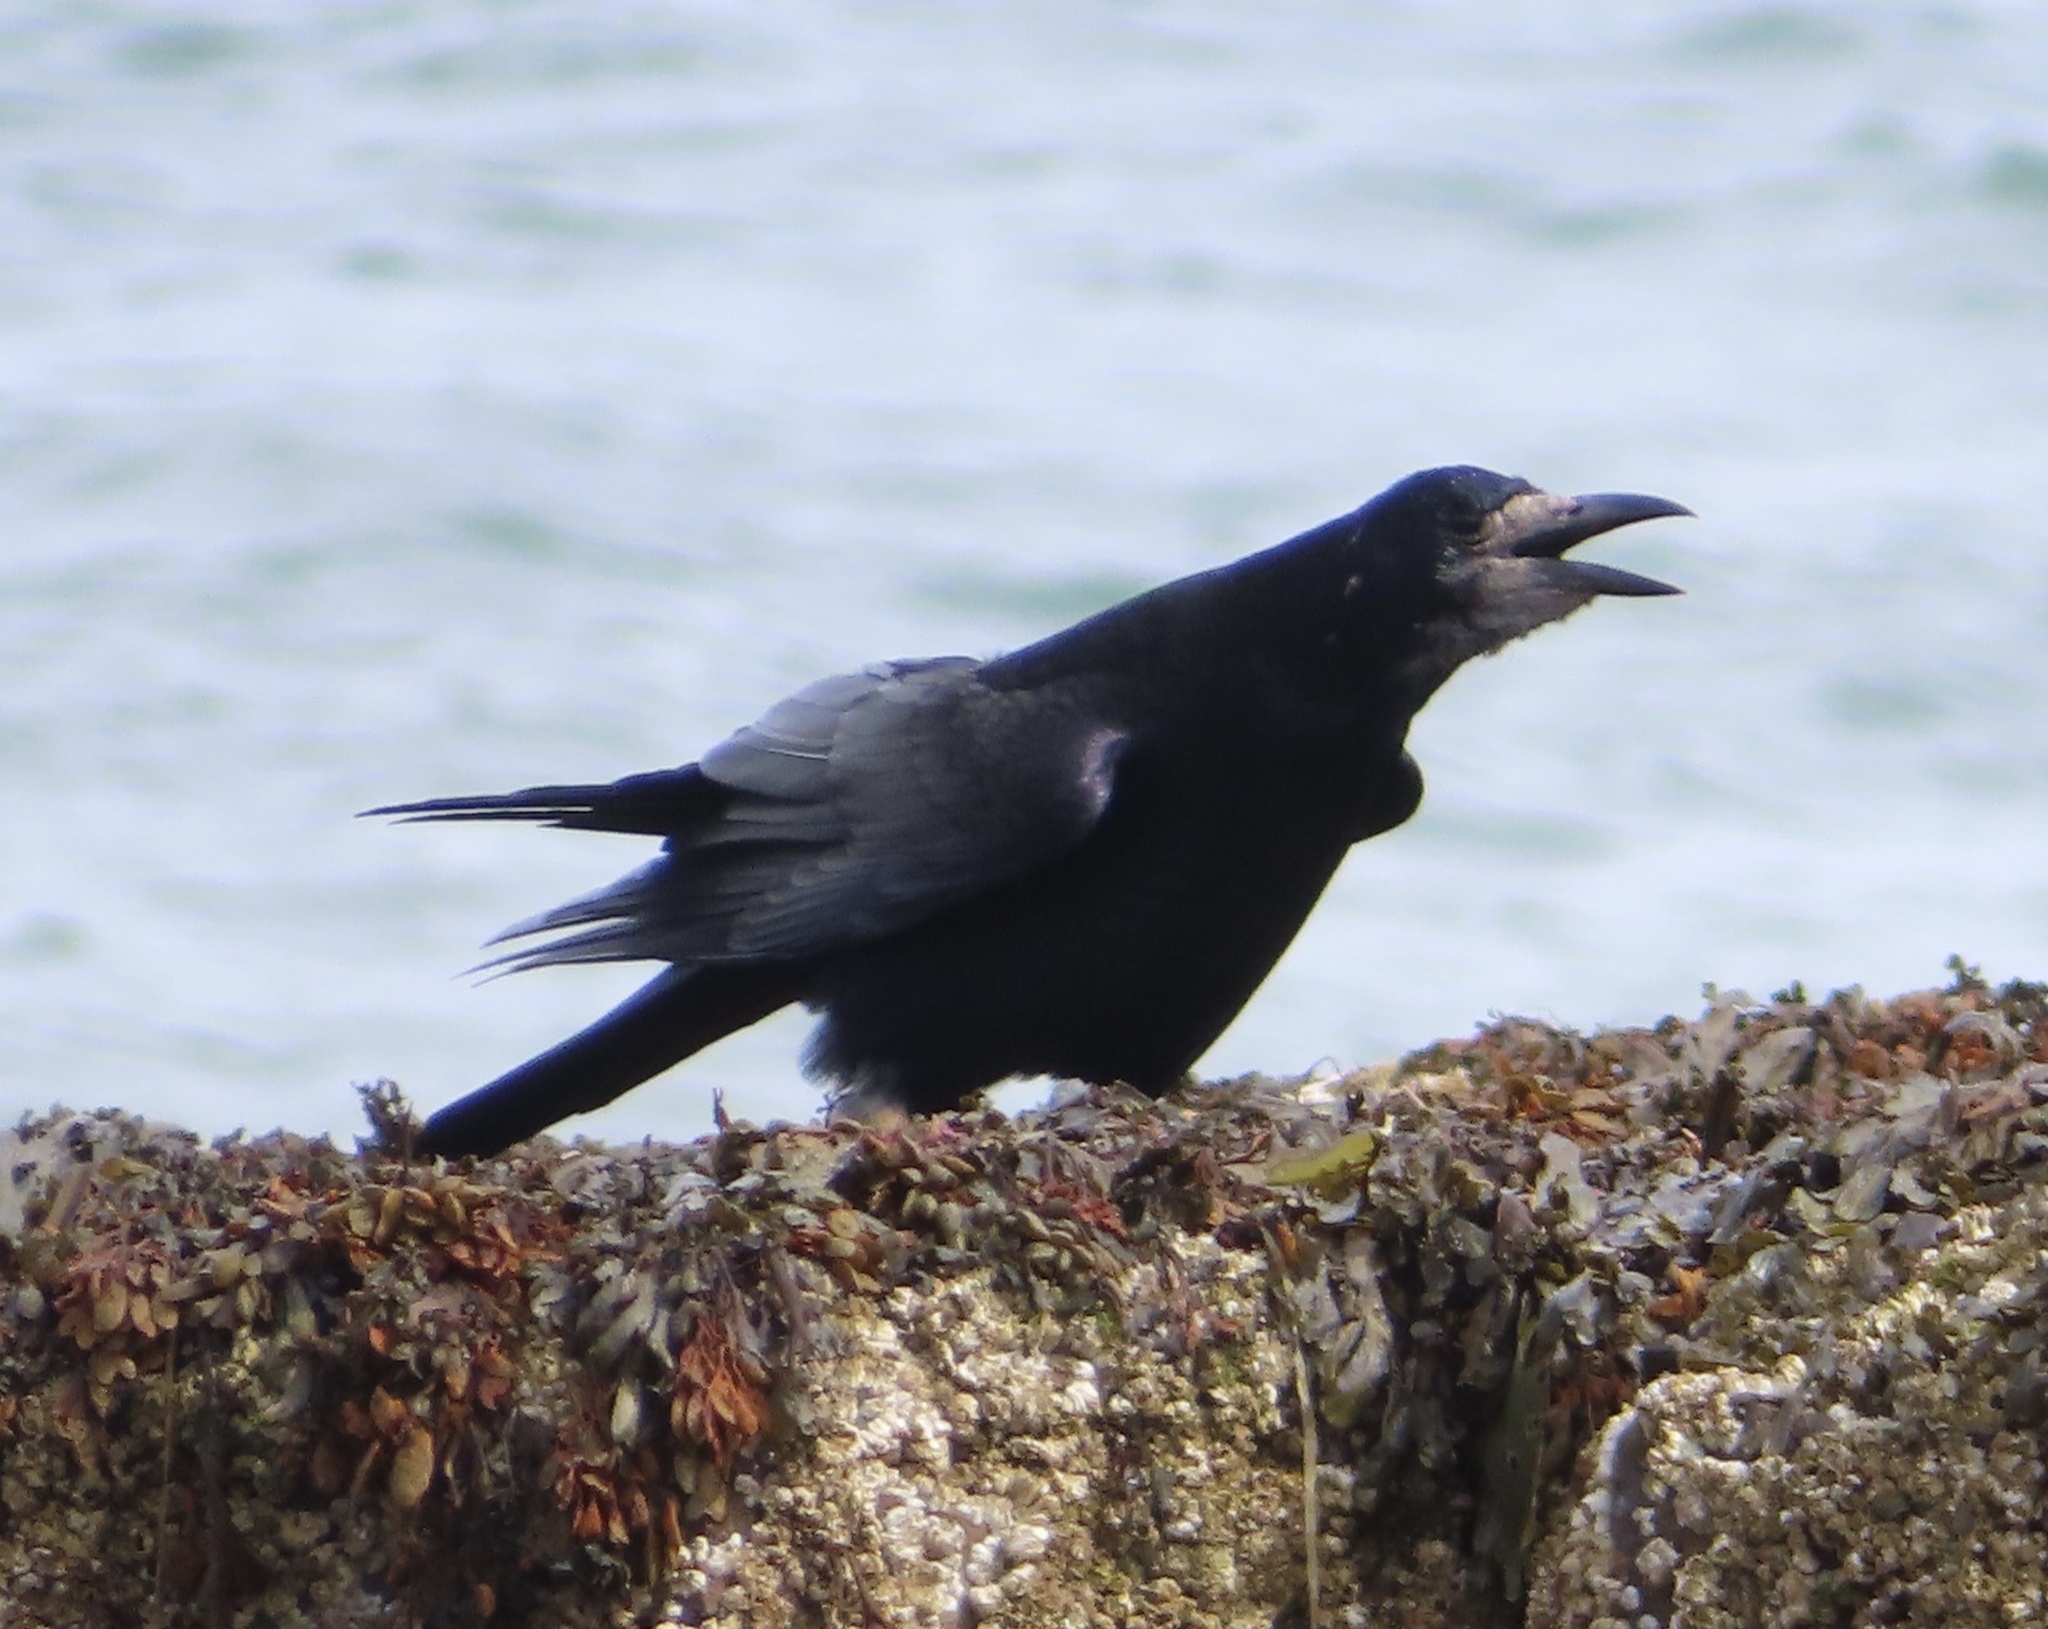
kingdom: Animalia
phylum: Chordata
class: Aves
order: Passeriformes
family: Corvidae
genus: Corvus
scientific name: Corvus frugilegus
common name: Rook
